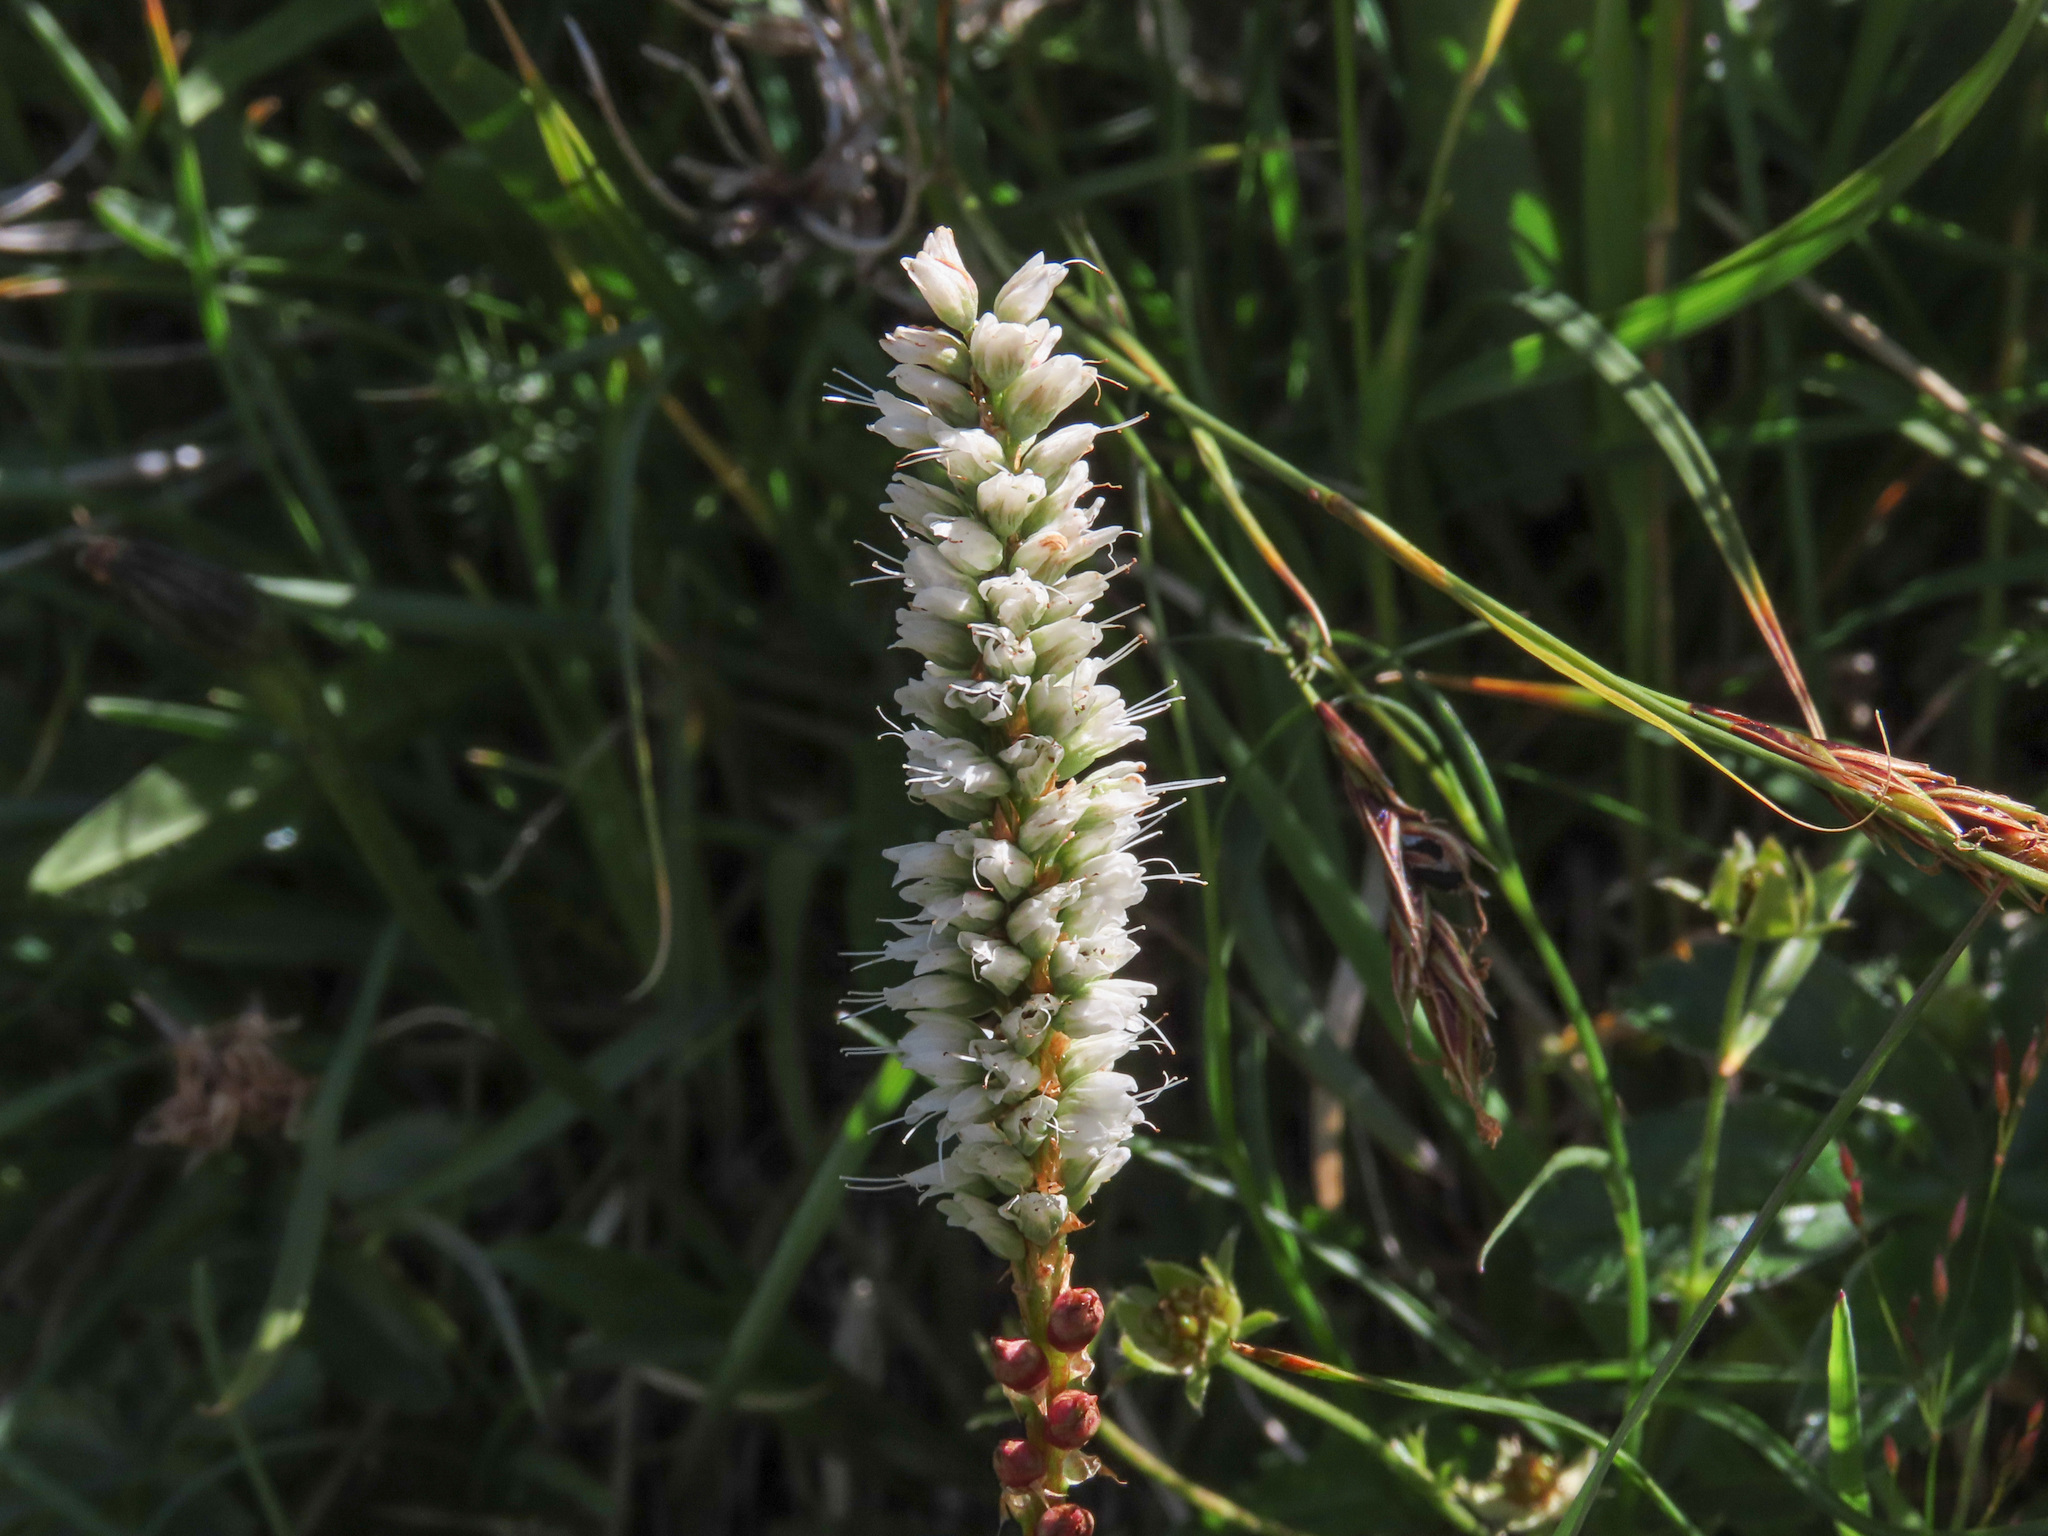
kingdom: Plantae
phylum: Tracheophyta
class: Magnoliopsida
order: Caryophyllales
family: Polygonaceae
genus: Bistorta
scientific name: Bistorta vivipara
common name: Alpine bistort
